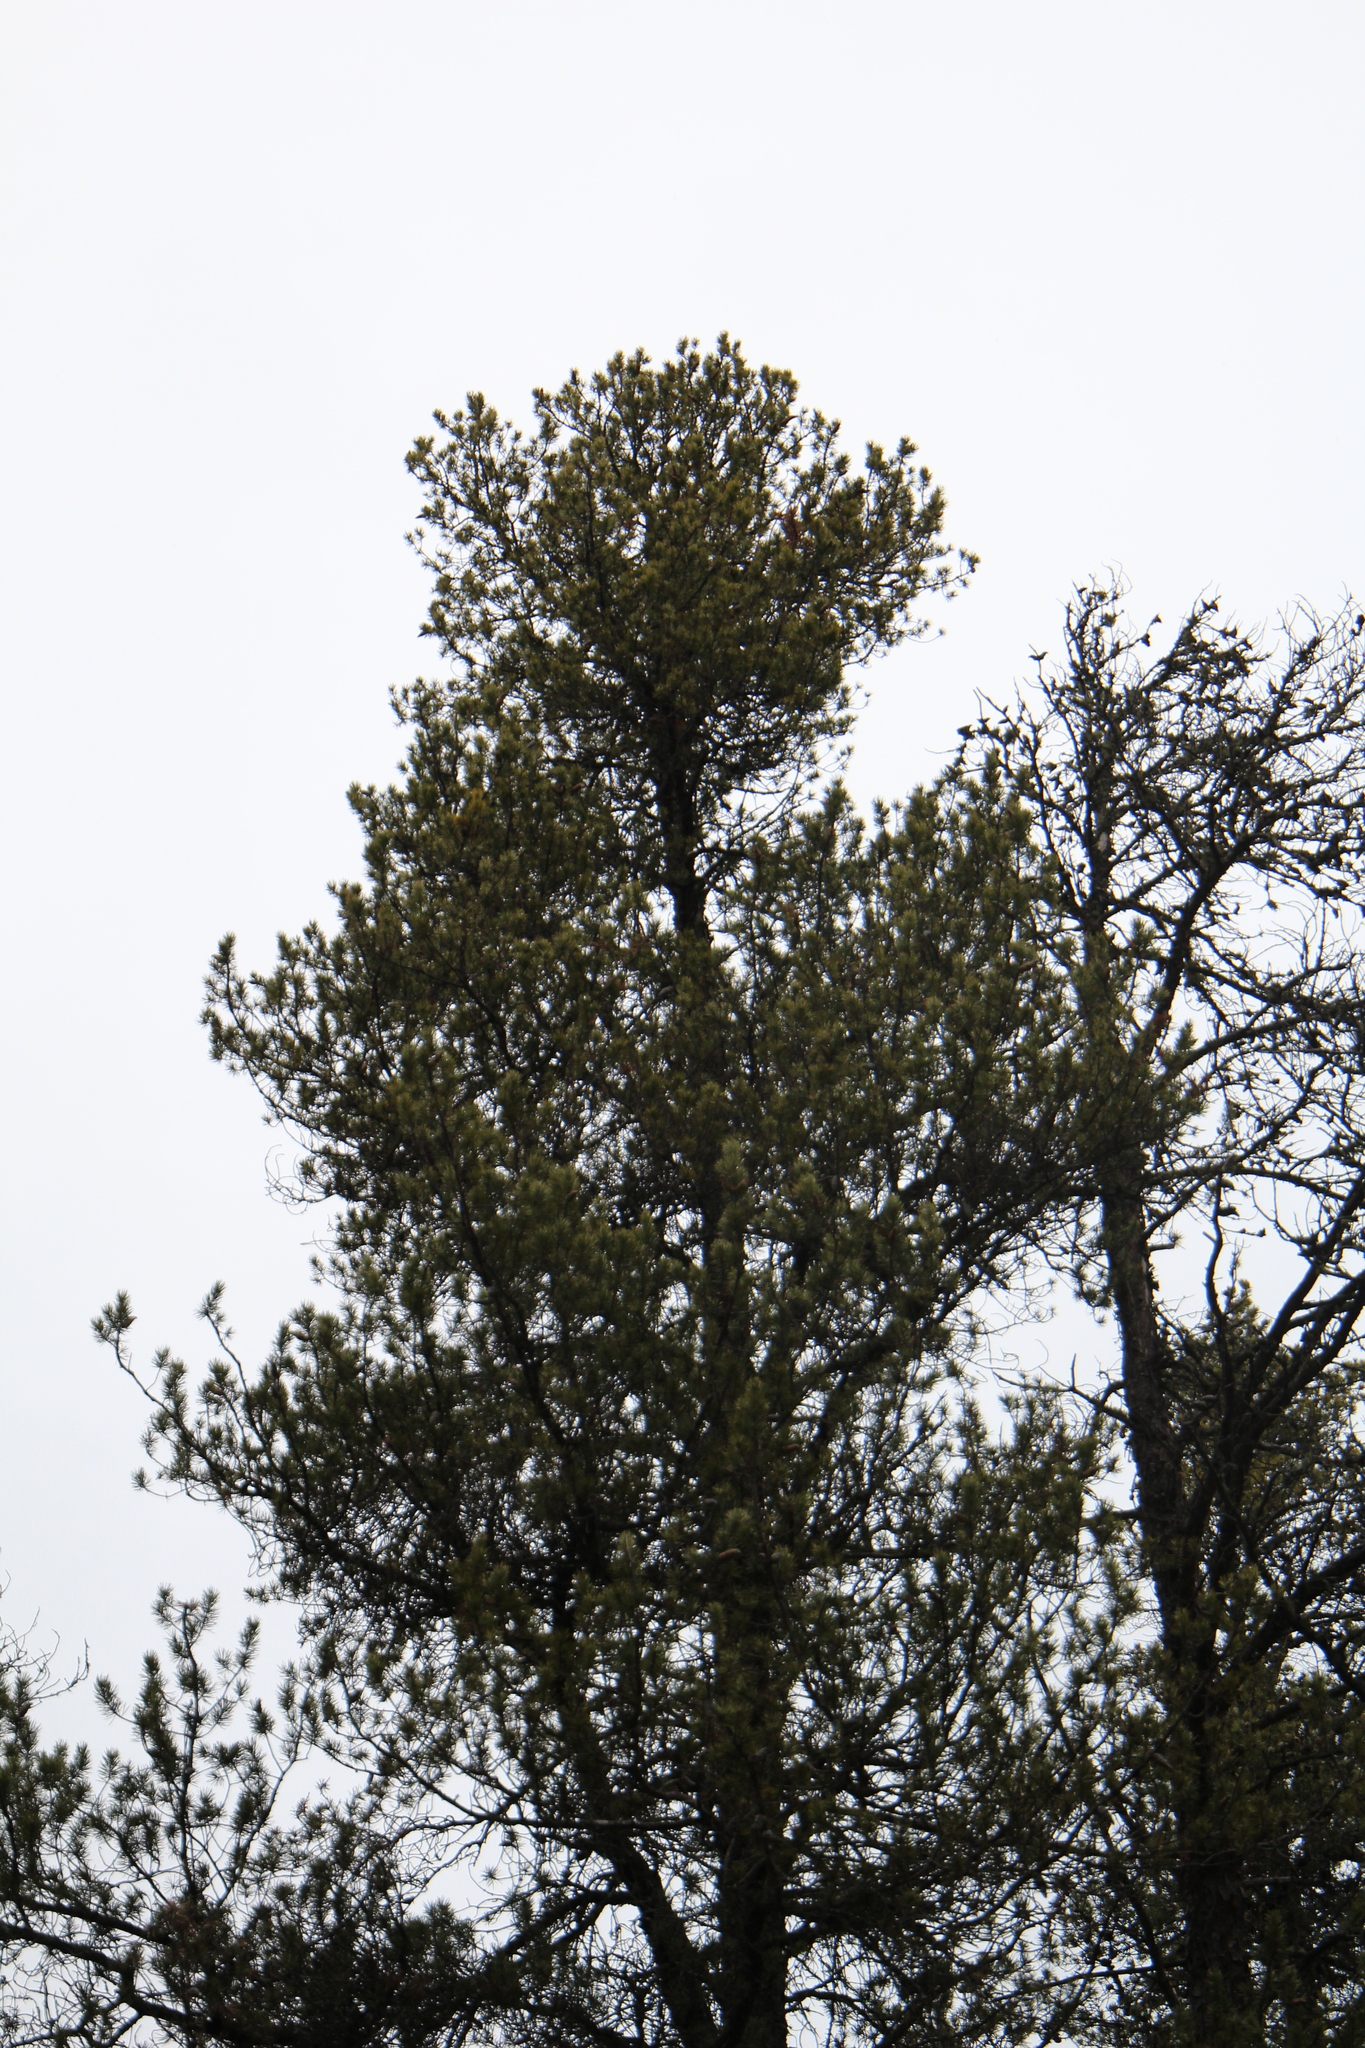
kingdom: Plantae
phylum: Tracheophyta
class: Pinopsida
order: Pinales
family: Pinaceae
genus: Pinus
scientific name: Pinus banksiana
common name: Jack pine
